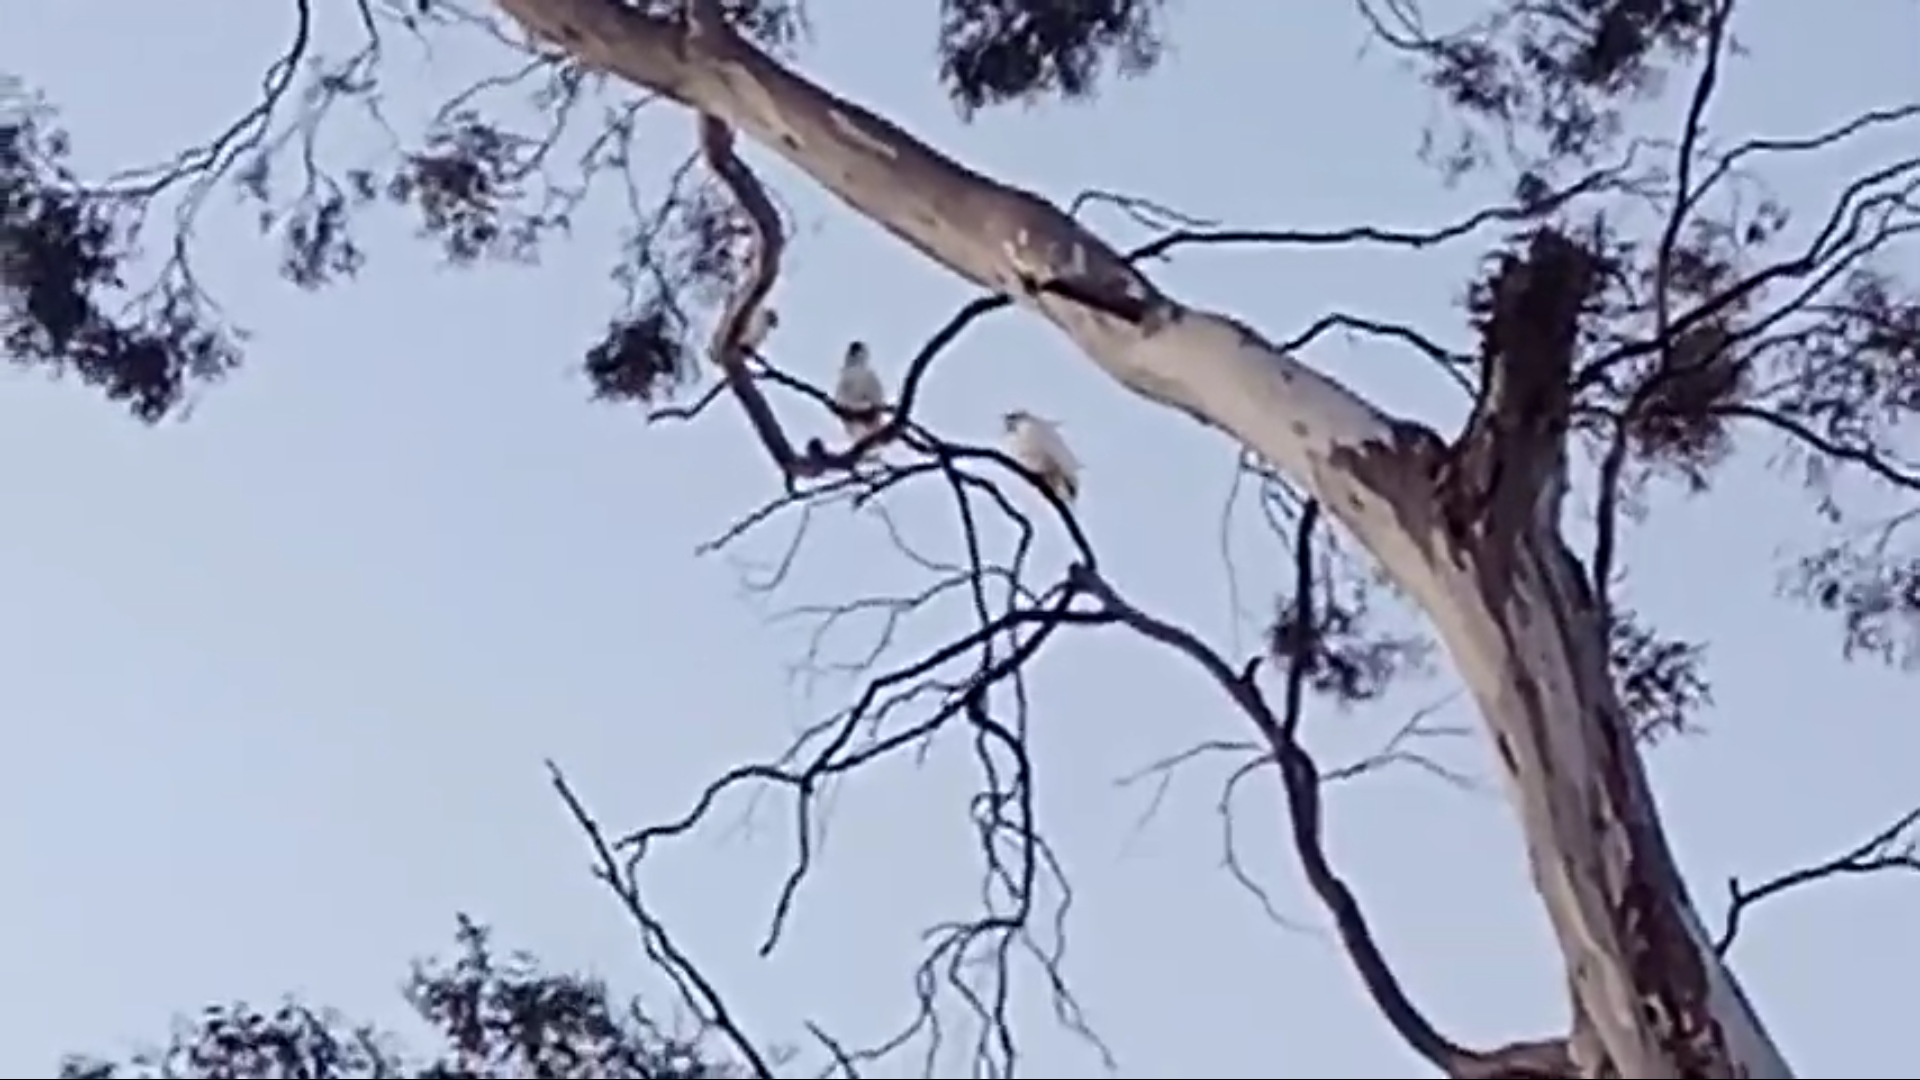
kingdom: Animalia
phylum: Chordata
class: Aves
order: Psittaciformes
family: Psittacidae
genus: Cacatua
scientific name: Cacatua galerita
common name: Sulphur-crested cockatoo
